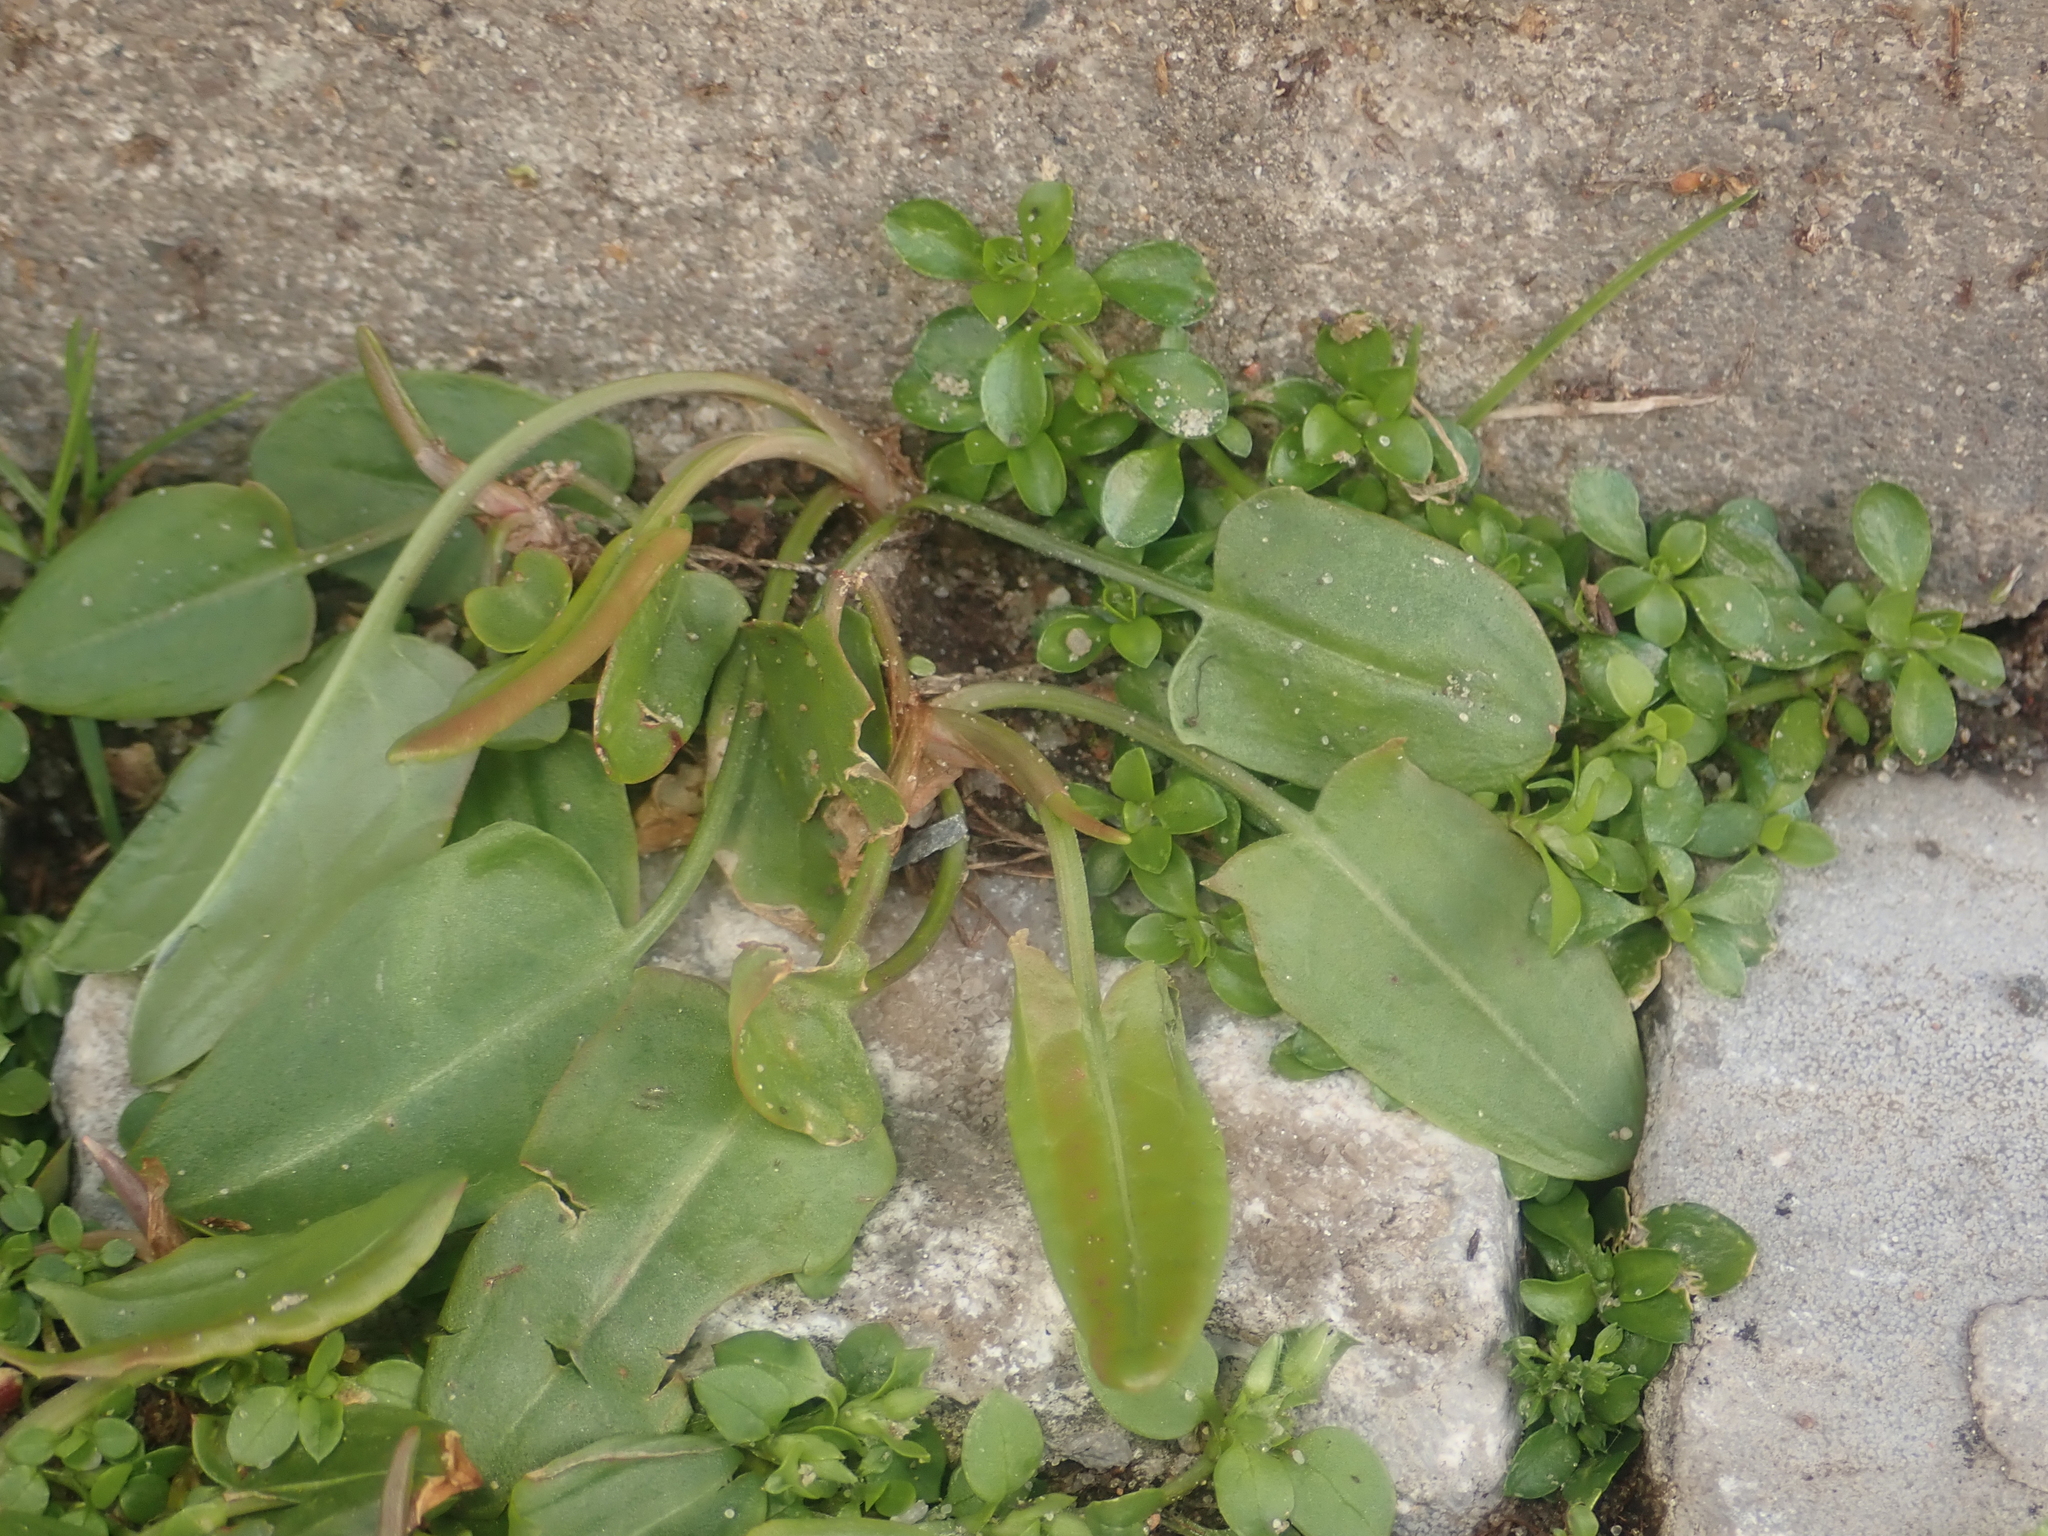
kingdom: Plantae
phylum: Tracheophyta
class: Magnoliopsida
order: Caryophyllales
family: Polygonaceae
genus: Rumex
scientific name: Rumex acetosa
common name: Garden sorrel
